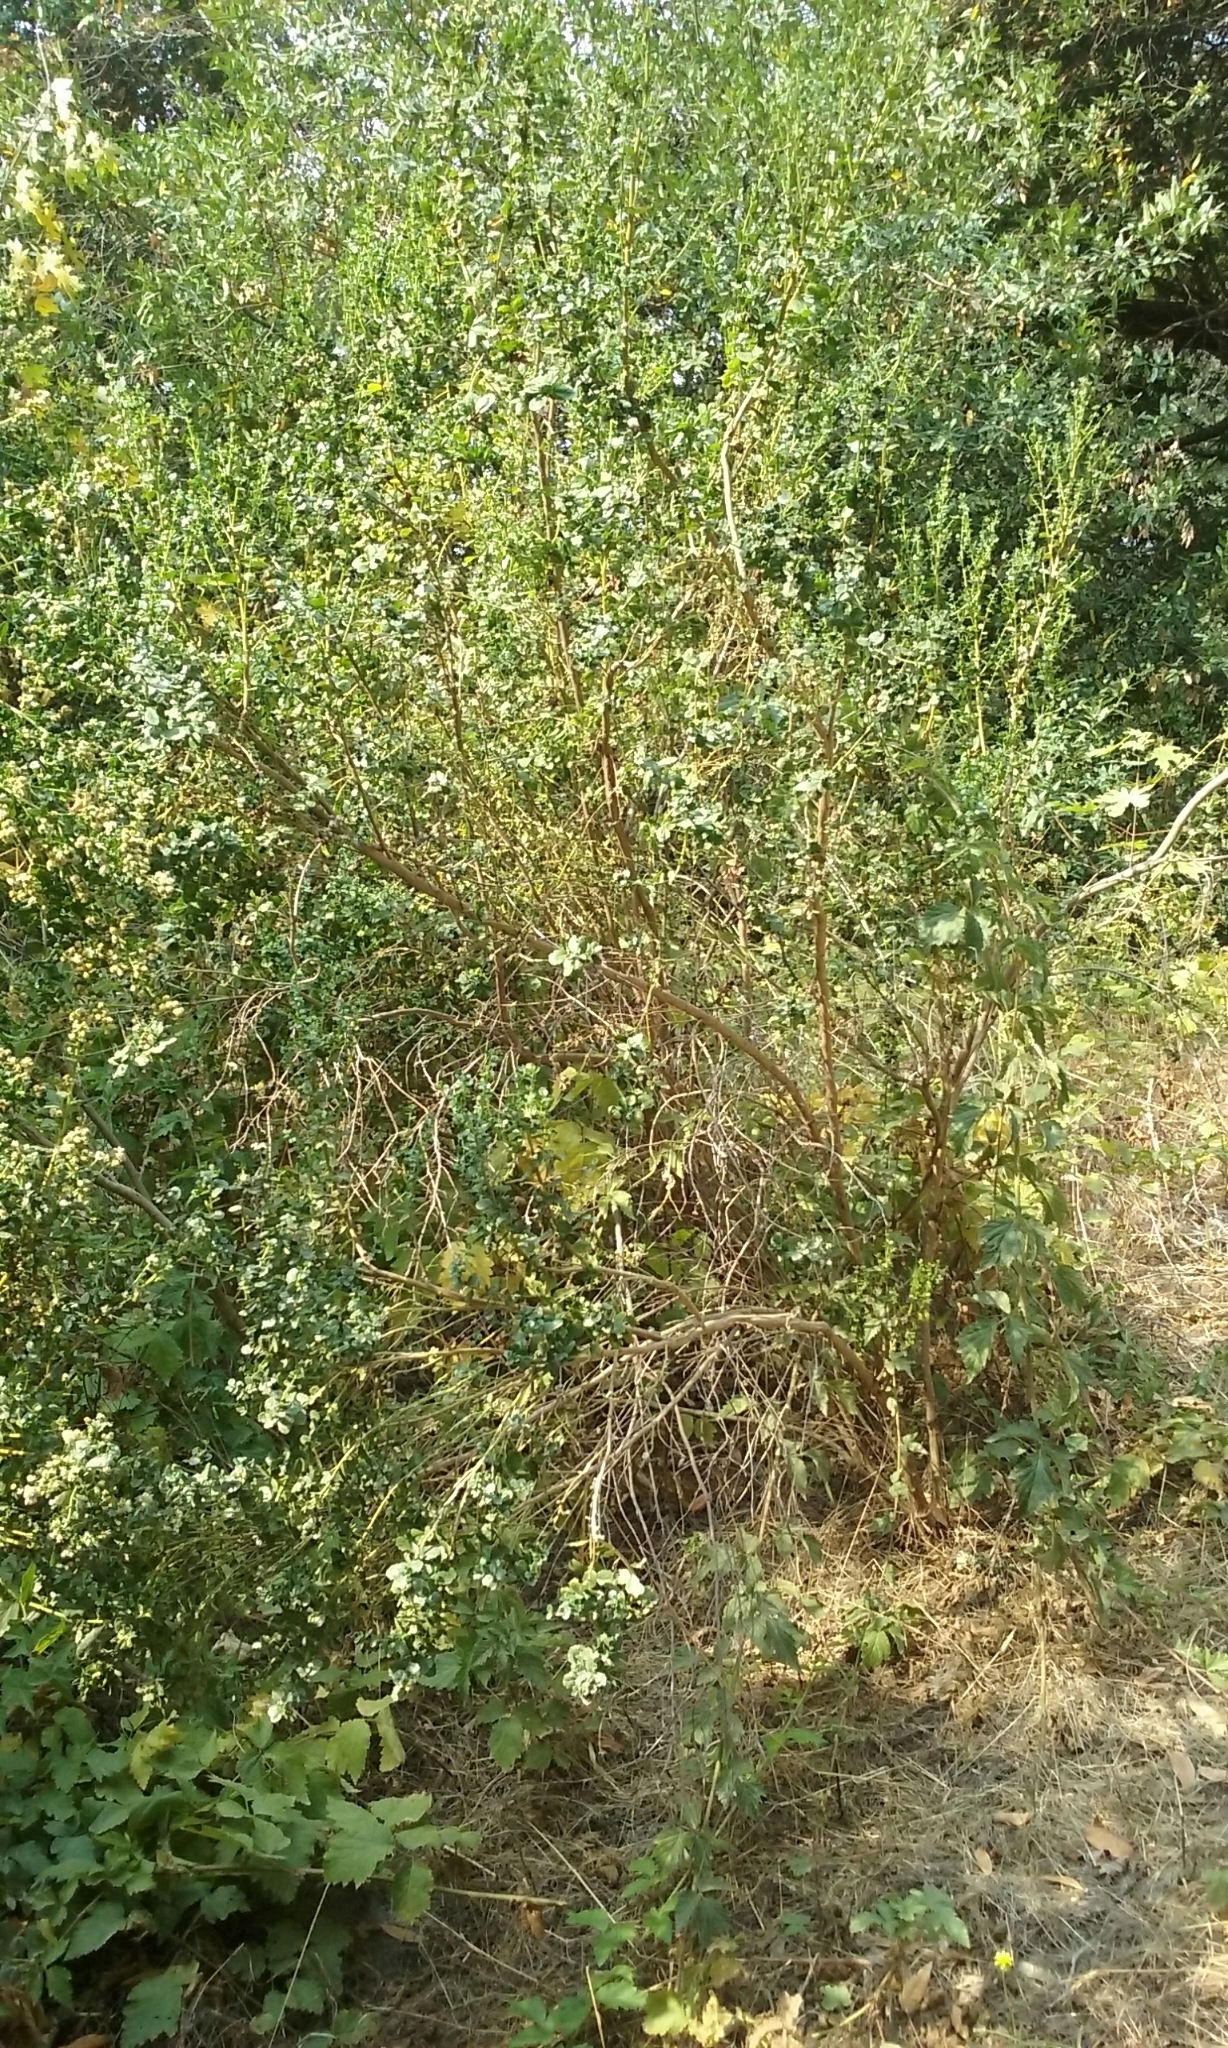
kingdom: Plantae
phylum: Tracheophyta
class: Magnoliopsida
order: Asterales
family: Asteraceae
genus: Baccharis
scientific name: Baccharis pilularis
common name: Coyotebrush
